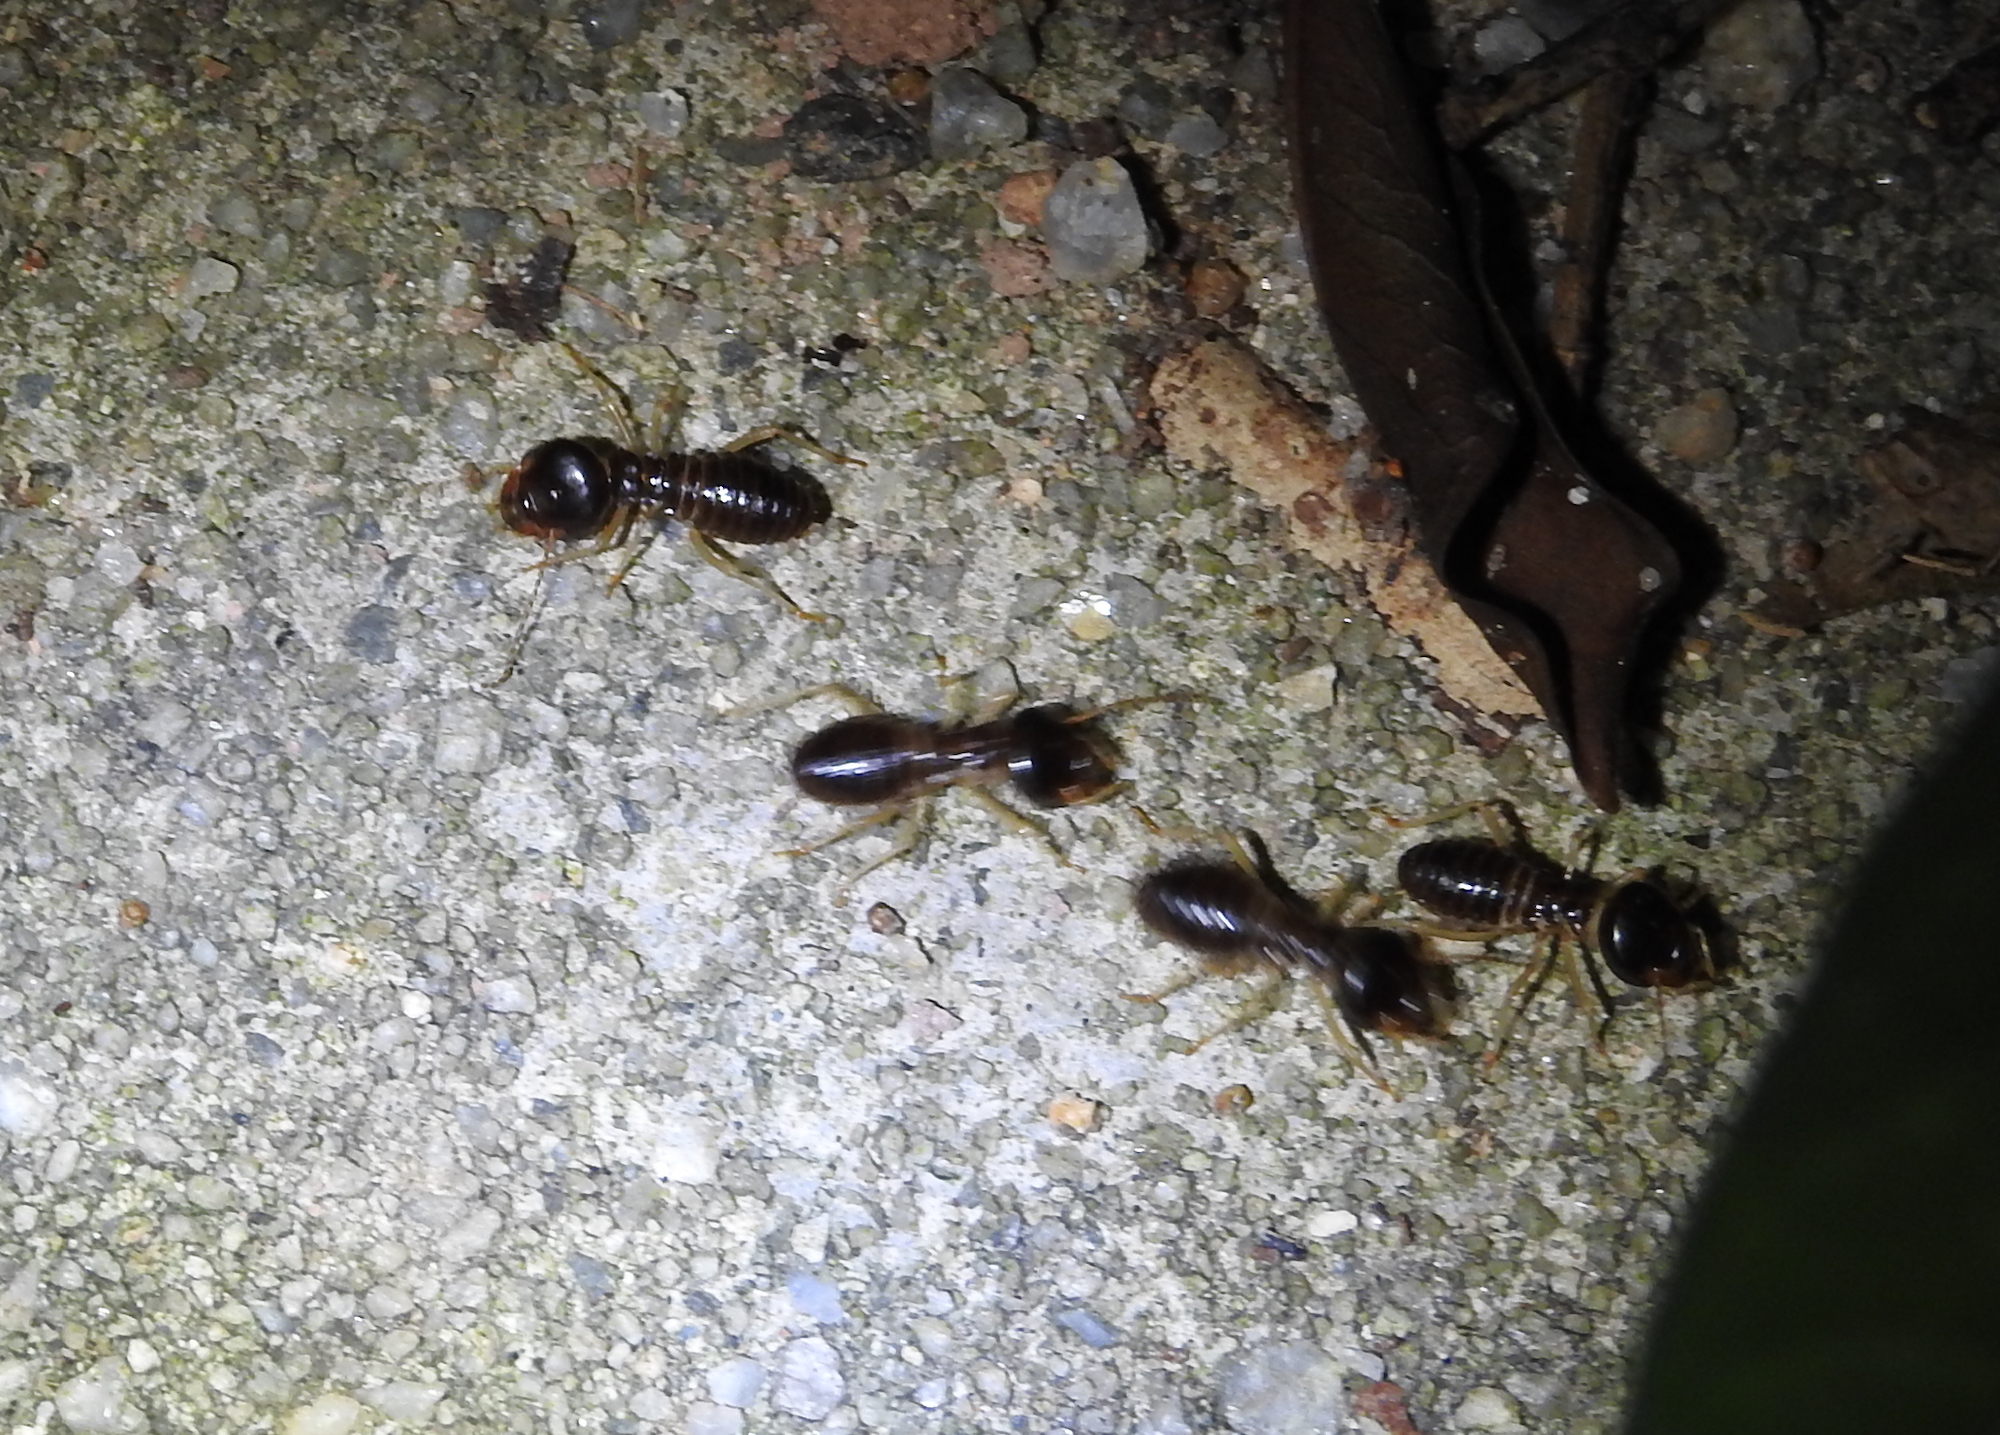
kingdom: Animalia
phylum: Arthropoda
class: Insecta
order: Blattodea
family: Termitidae
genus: Macrotermes
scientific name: Macrotermes carbonarius
